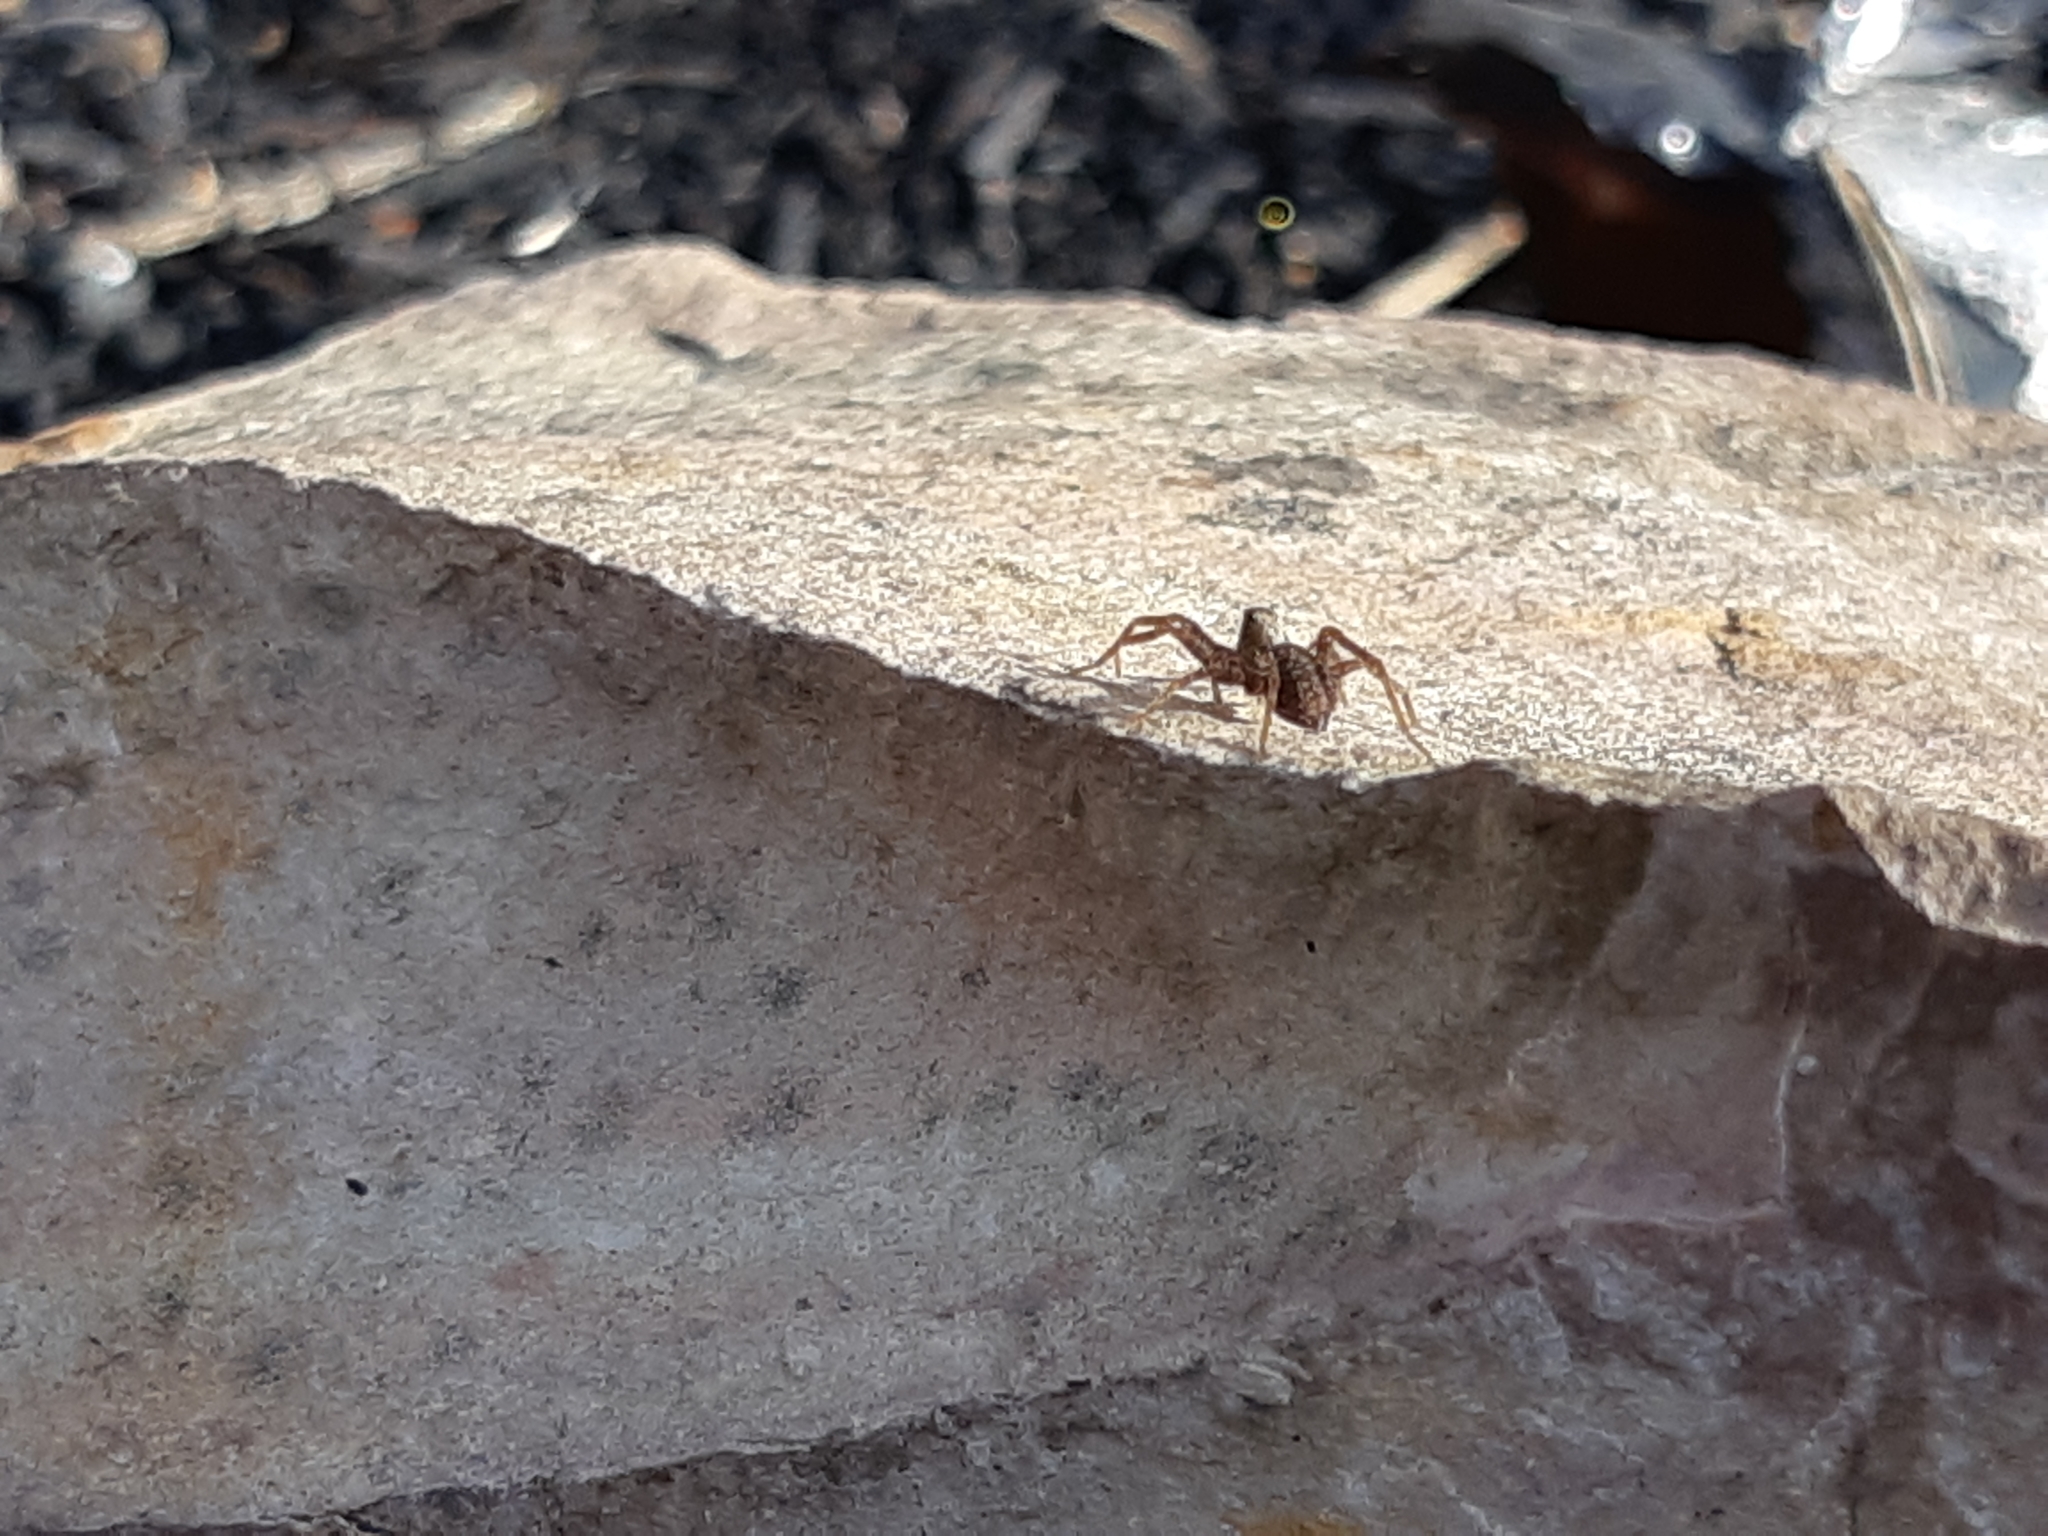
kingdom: Animalia
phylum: Arthropoda
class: Arachnida
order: Araneae
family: Lycosidae
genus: Pardosa
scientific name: Pardosa
